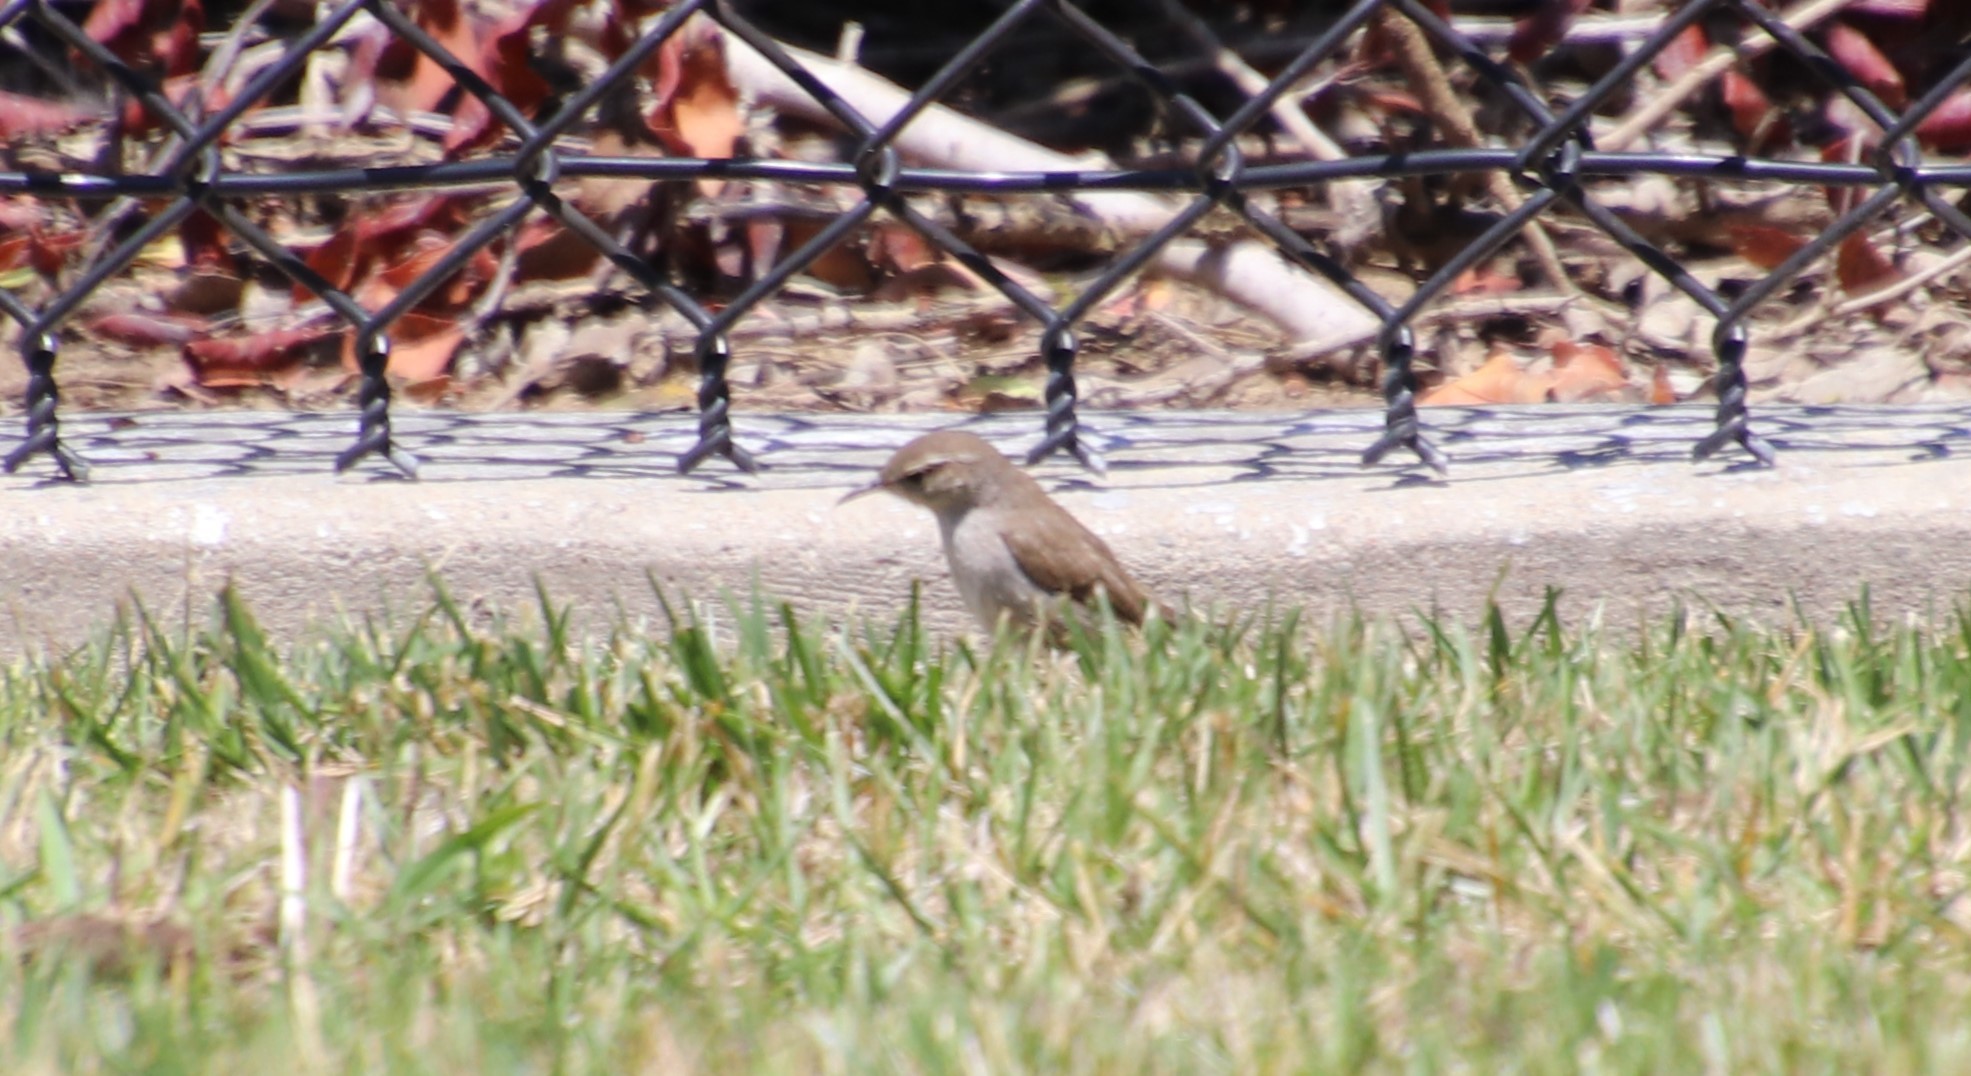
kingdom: Animalia
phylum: Chordata
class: Aves
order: Passeriformes
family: Troglodytidae
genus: Thryomanes
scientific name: Thryomanes bewickii
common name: Bewick's wren
